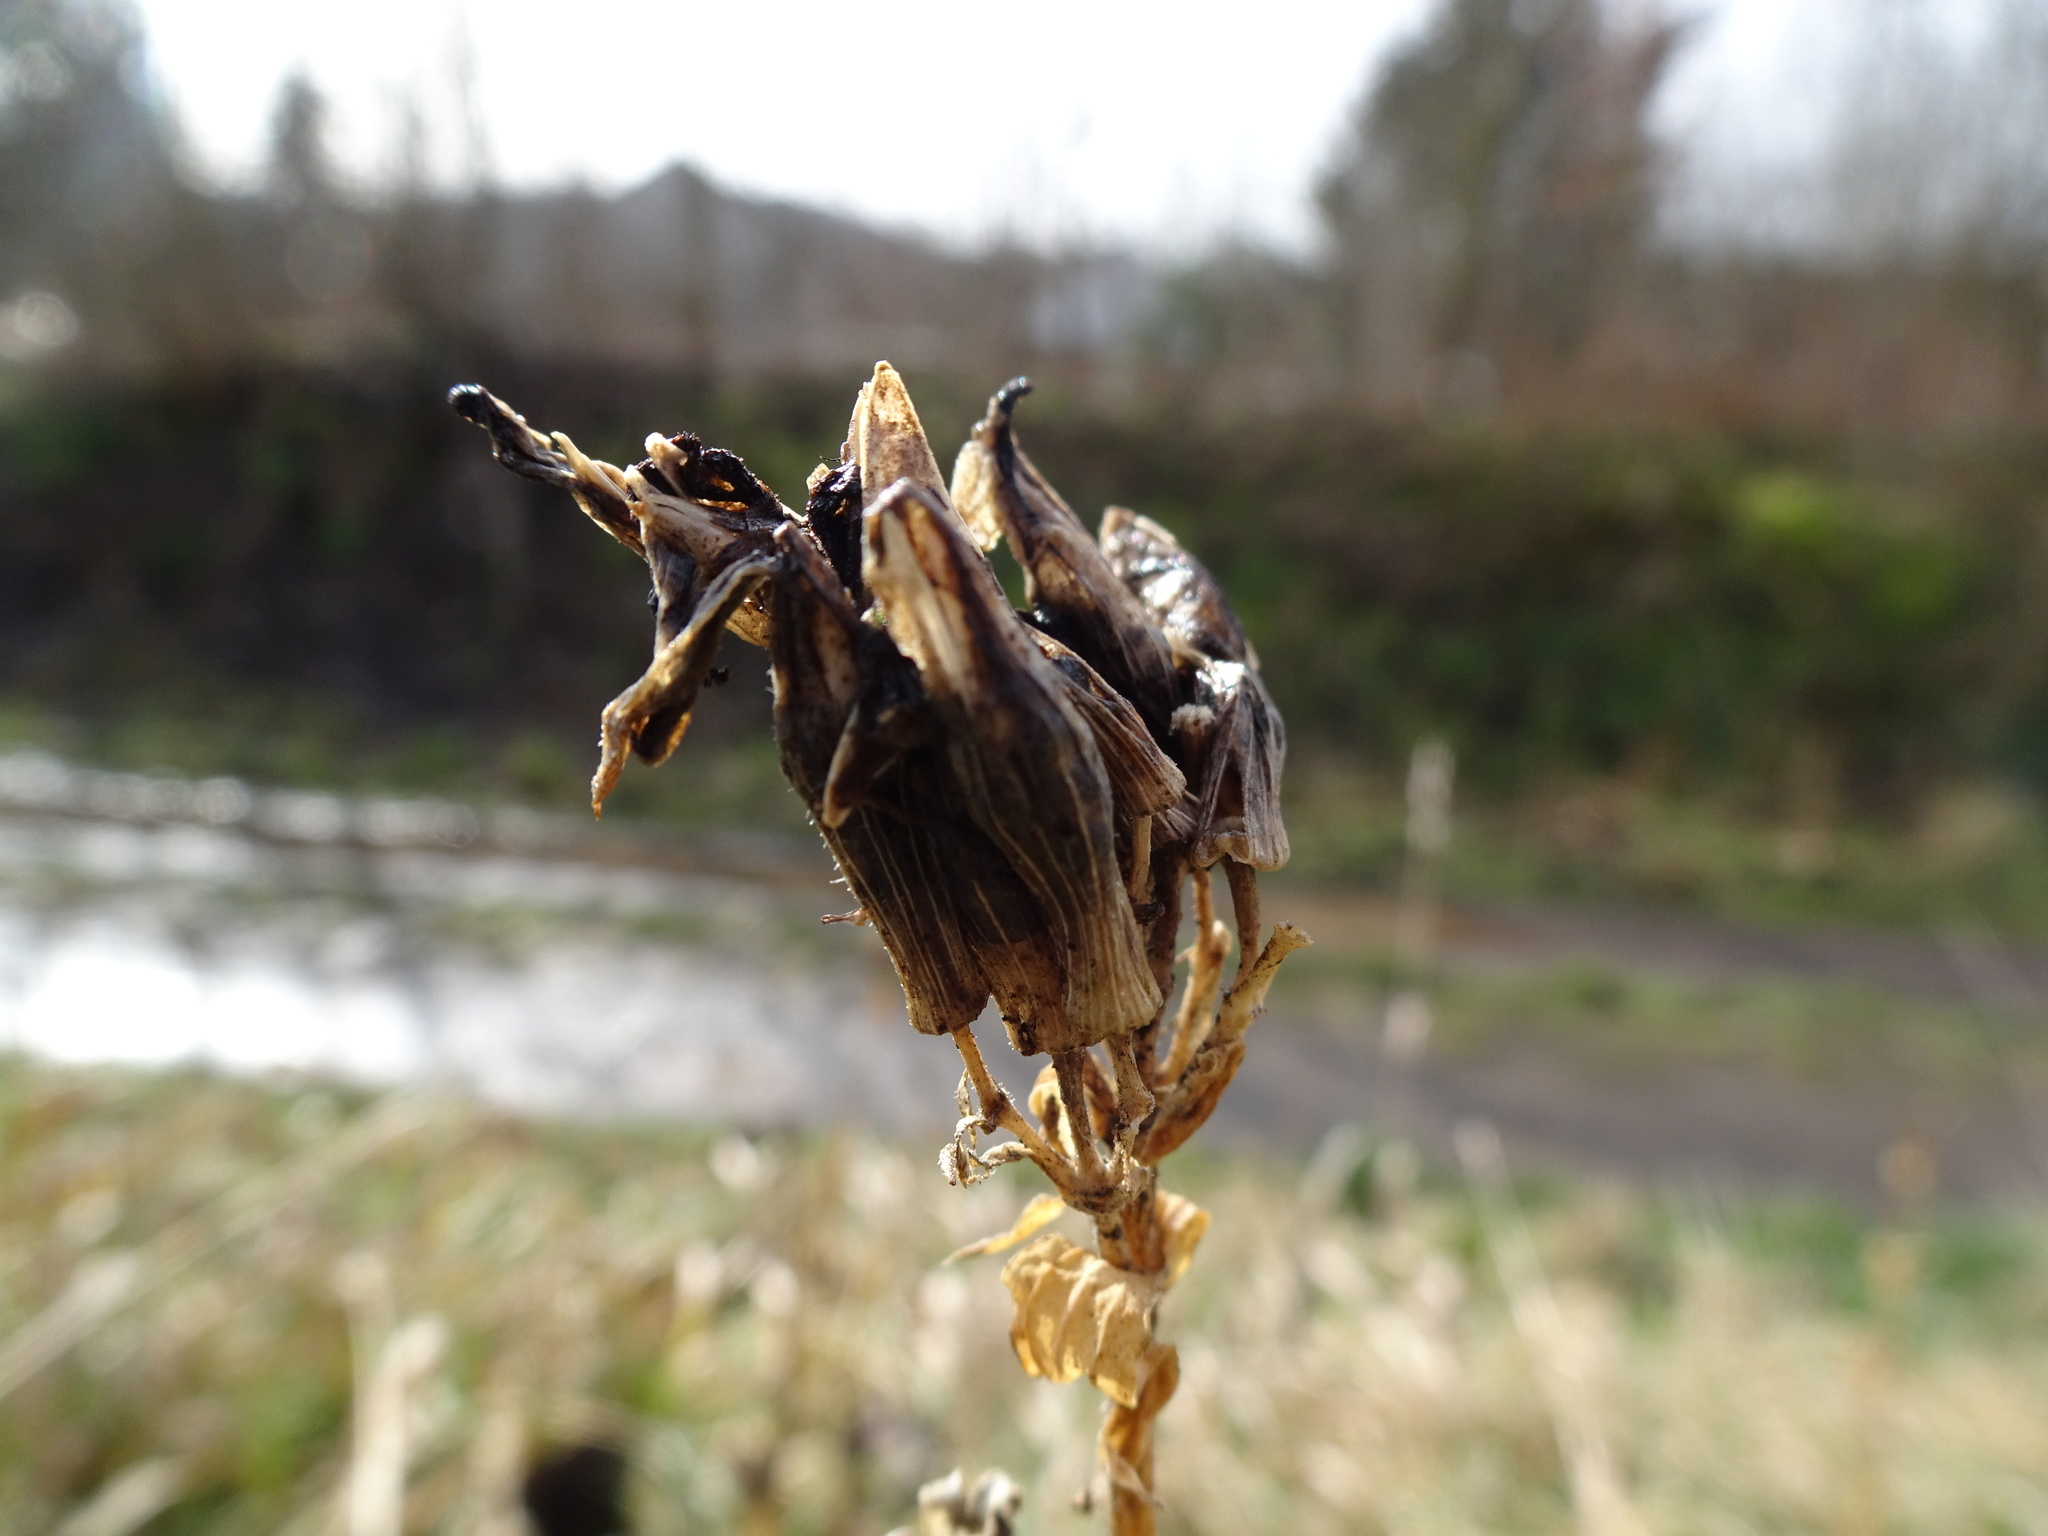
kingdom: Plantae
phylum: Tracheophyta
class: Magnoliopsida
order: Caryophyllales
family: Caryophyllaceae
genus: Saponaria
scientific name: Saponaria officinalis
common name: Soapwort
